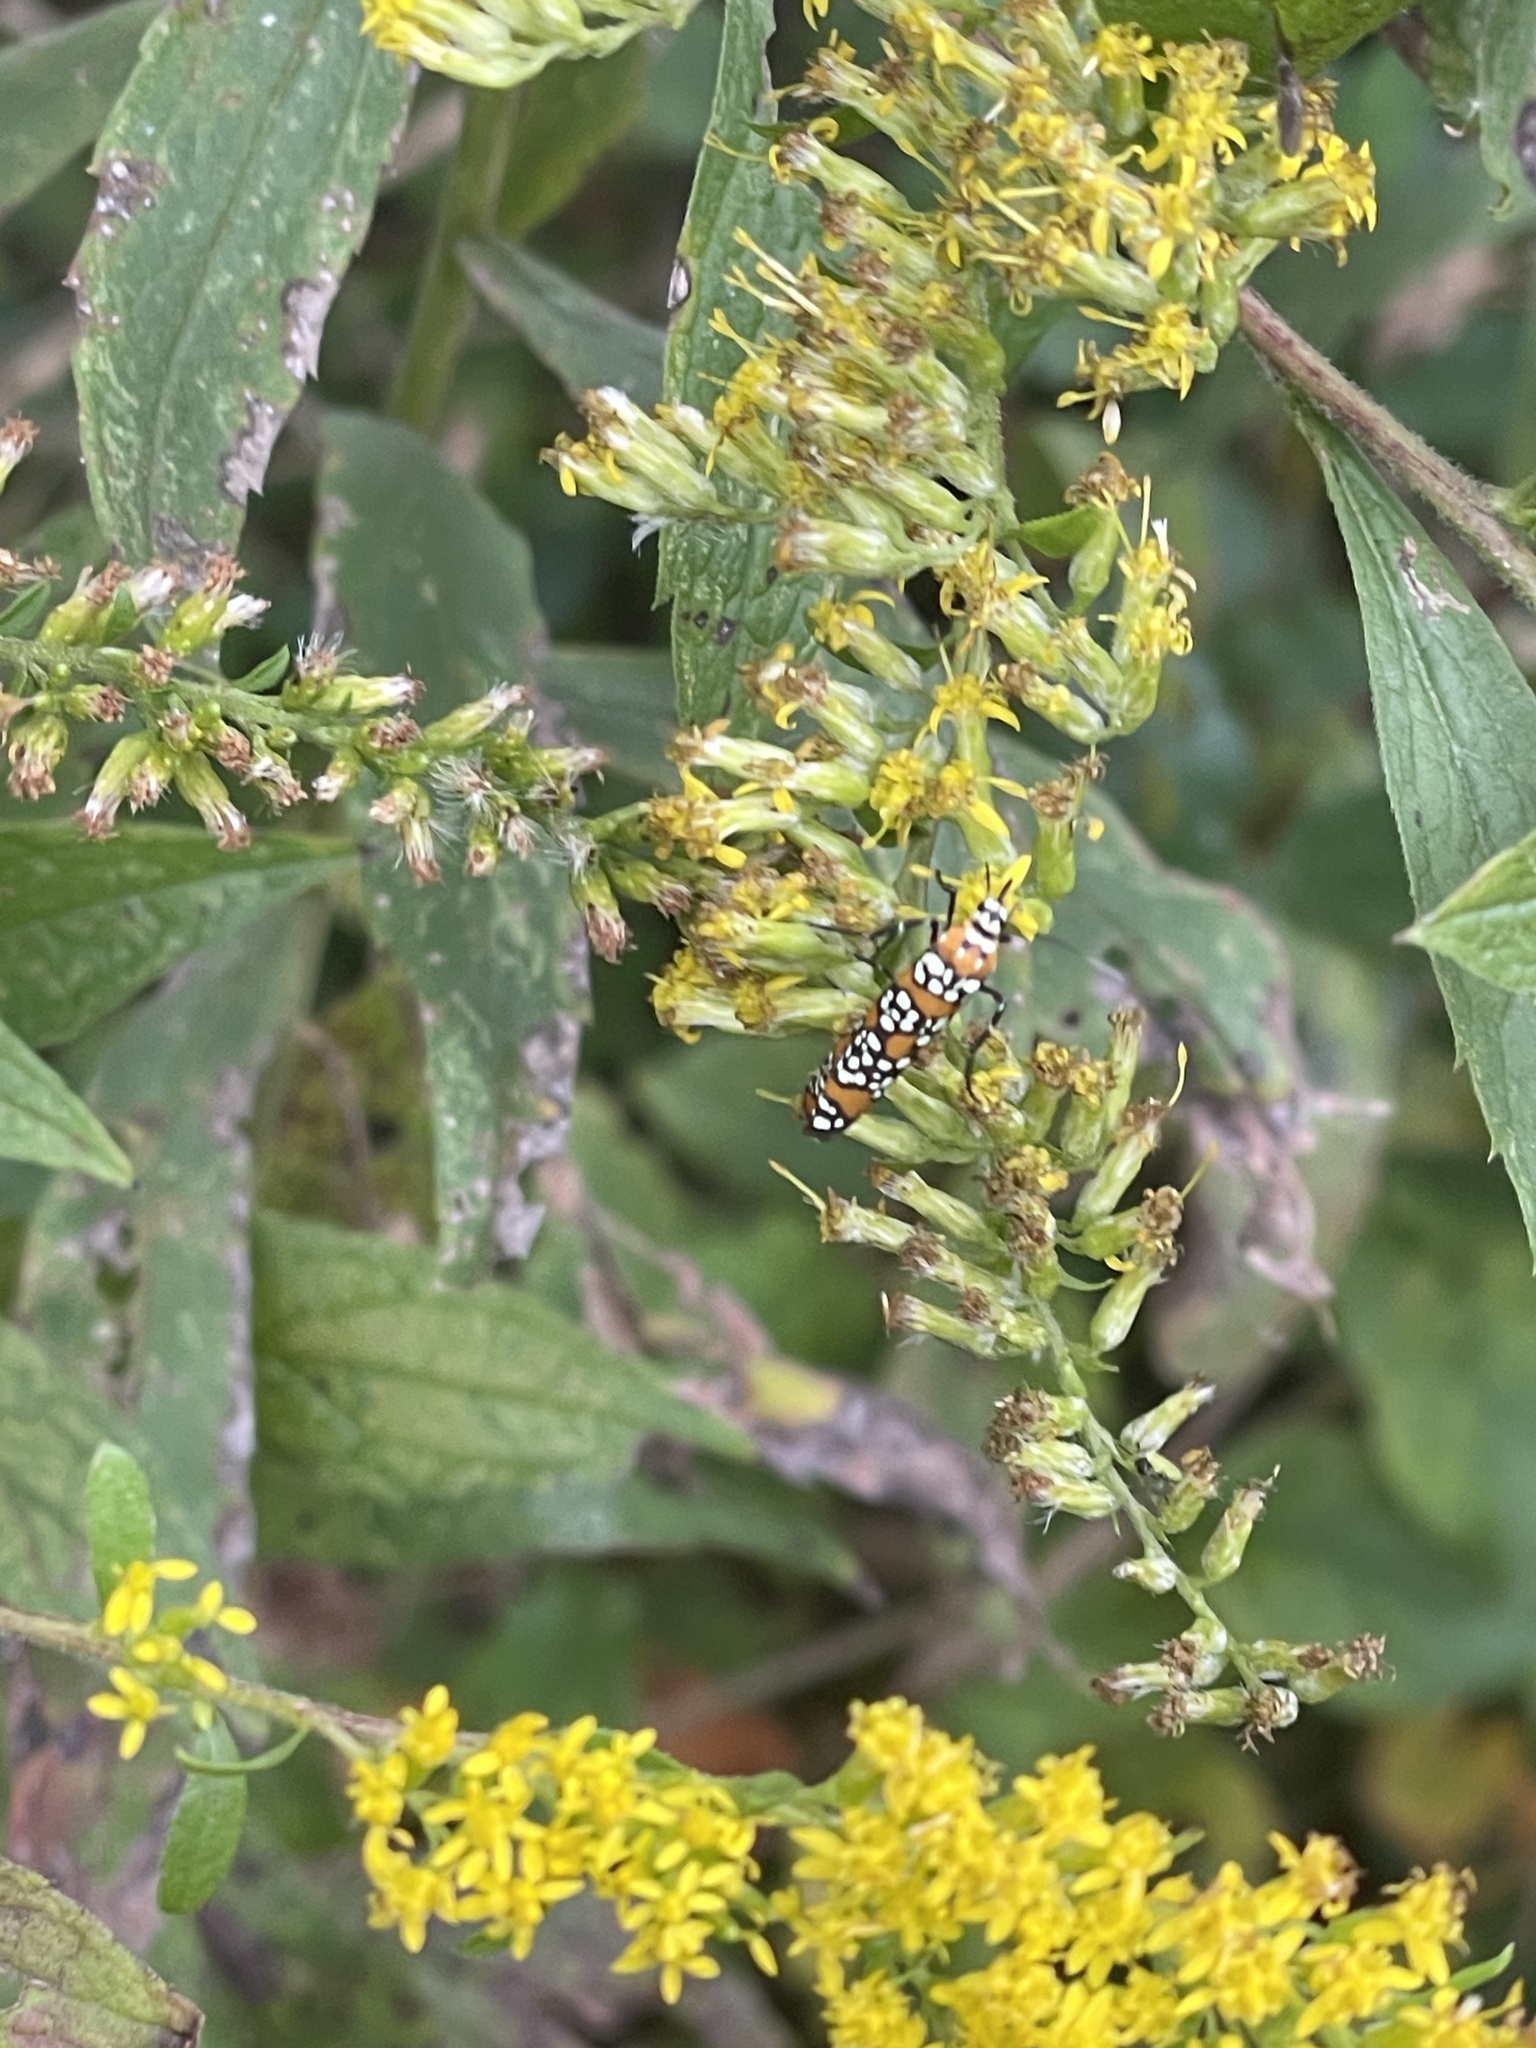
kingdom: Animalia
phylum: Arthropoda
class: Insecta
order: Lepidoptera
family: Attevidae
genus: Atteva
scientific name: Atteva punctella
